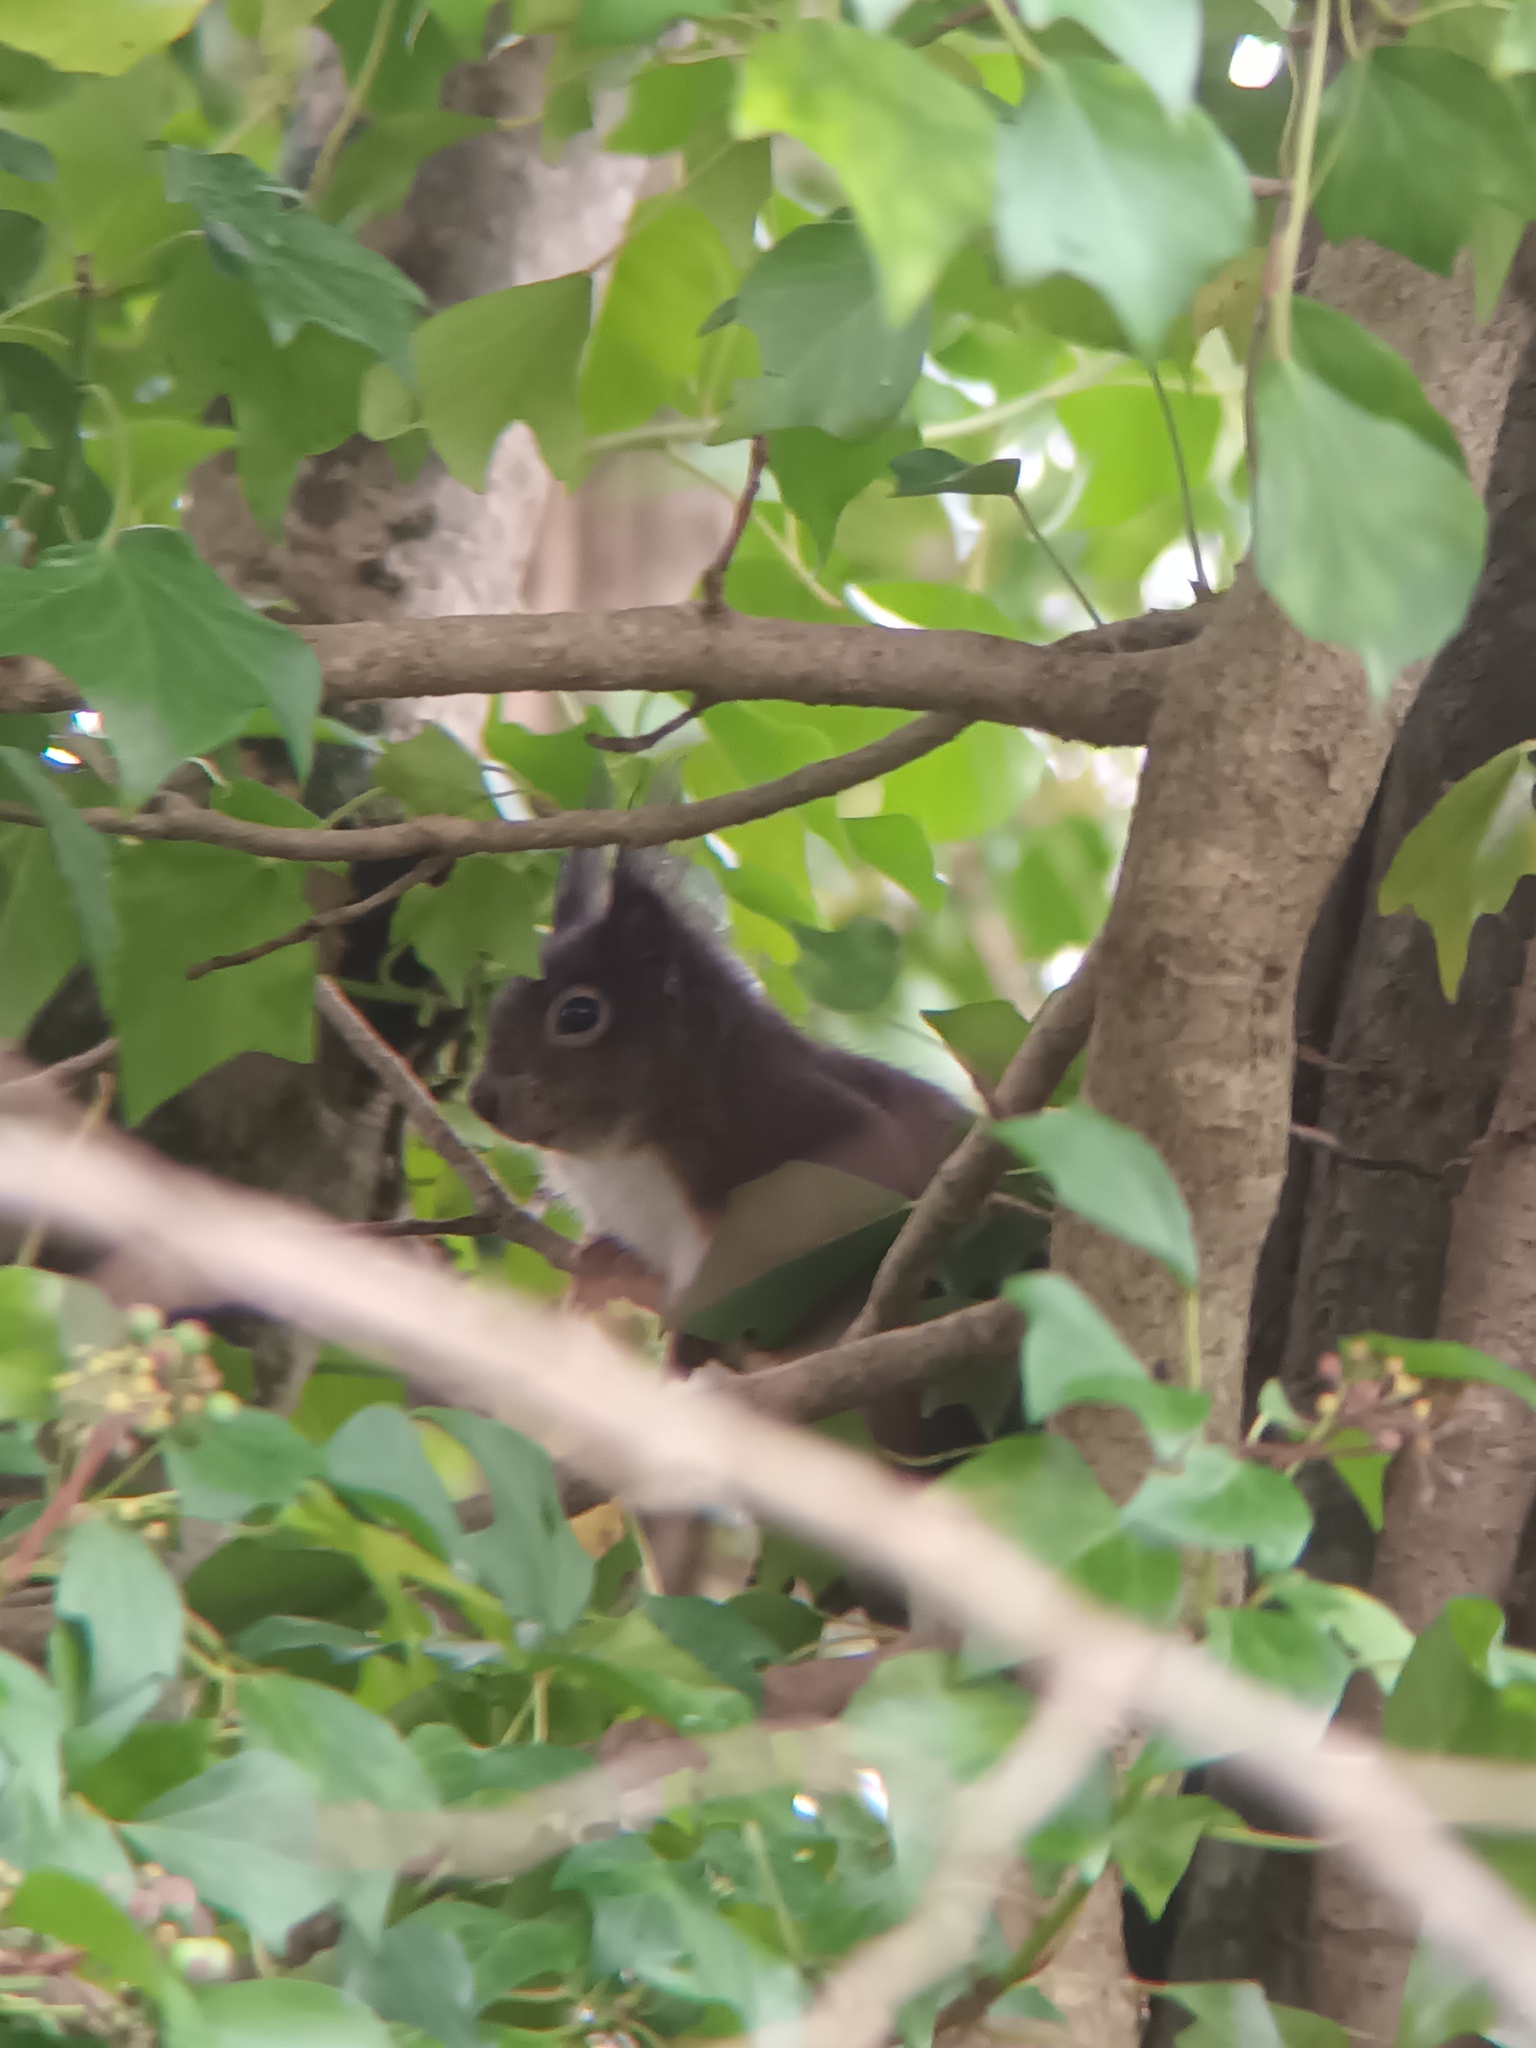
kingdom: Animalia
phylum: Chordata
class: Mammalia
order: Rodentia
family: Sciuridae
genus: Sciurus
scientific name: Sciurus vulgaris
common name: Eurasian red squirrel
